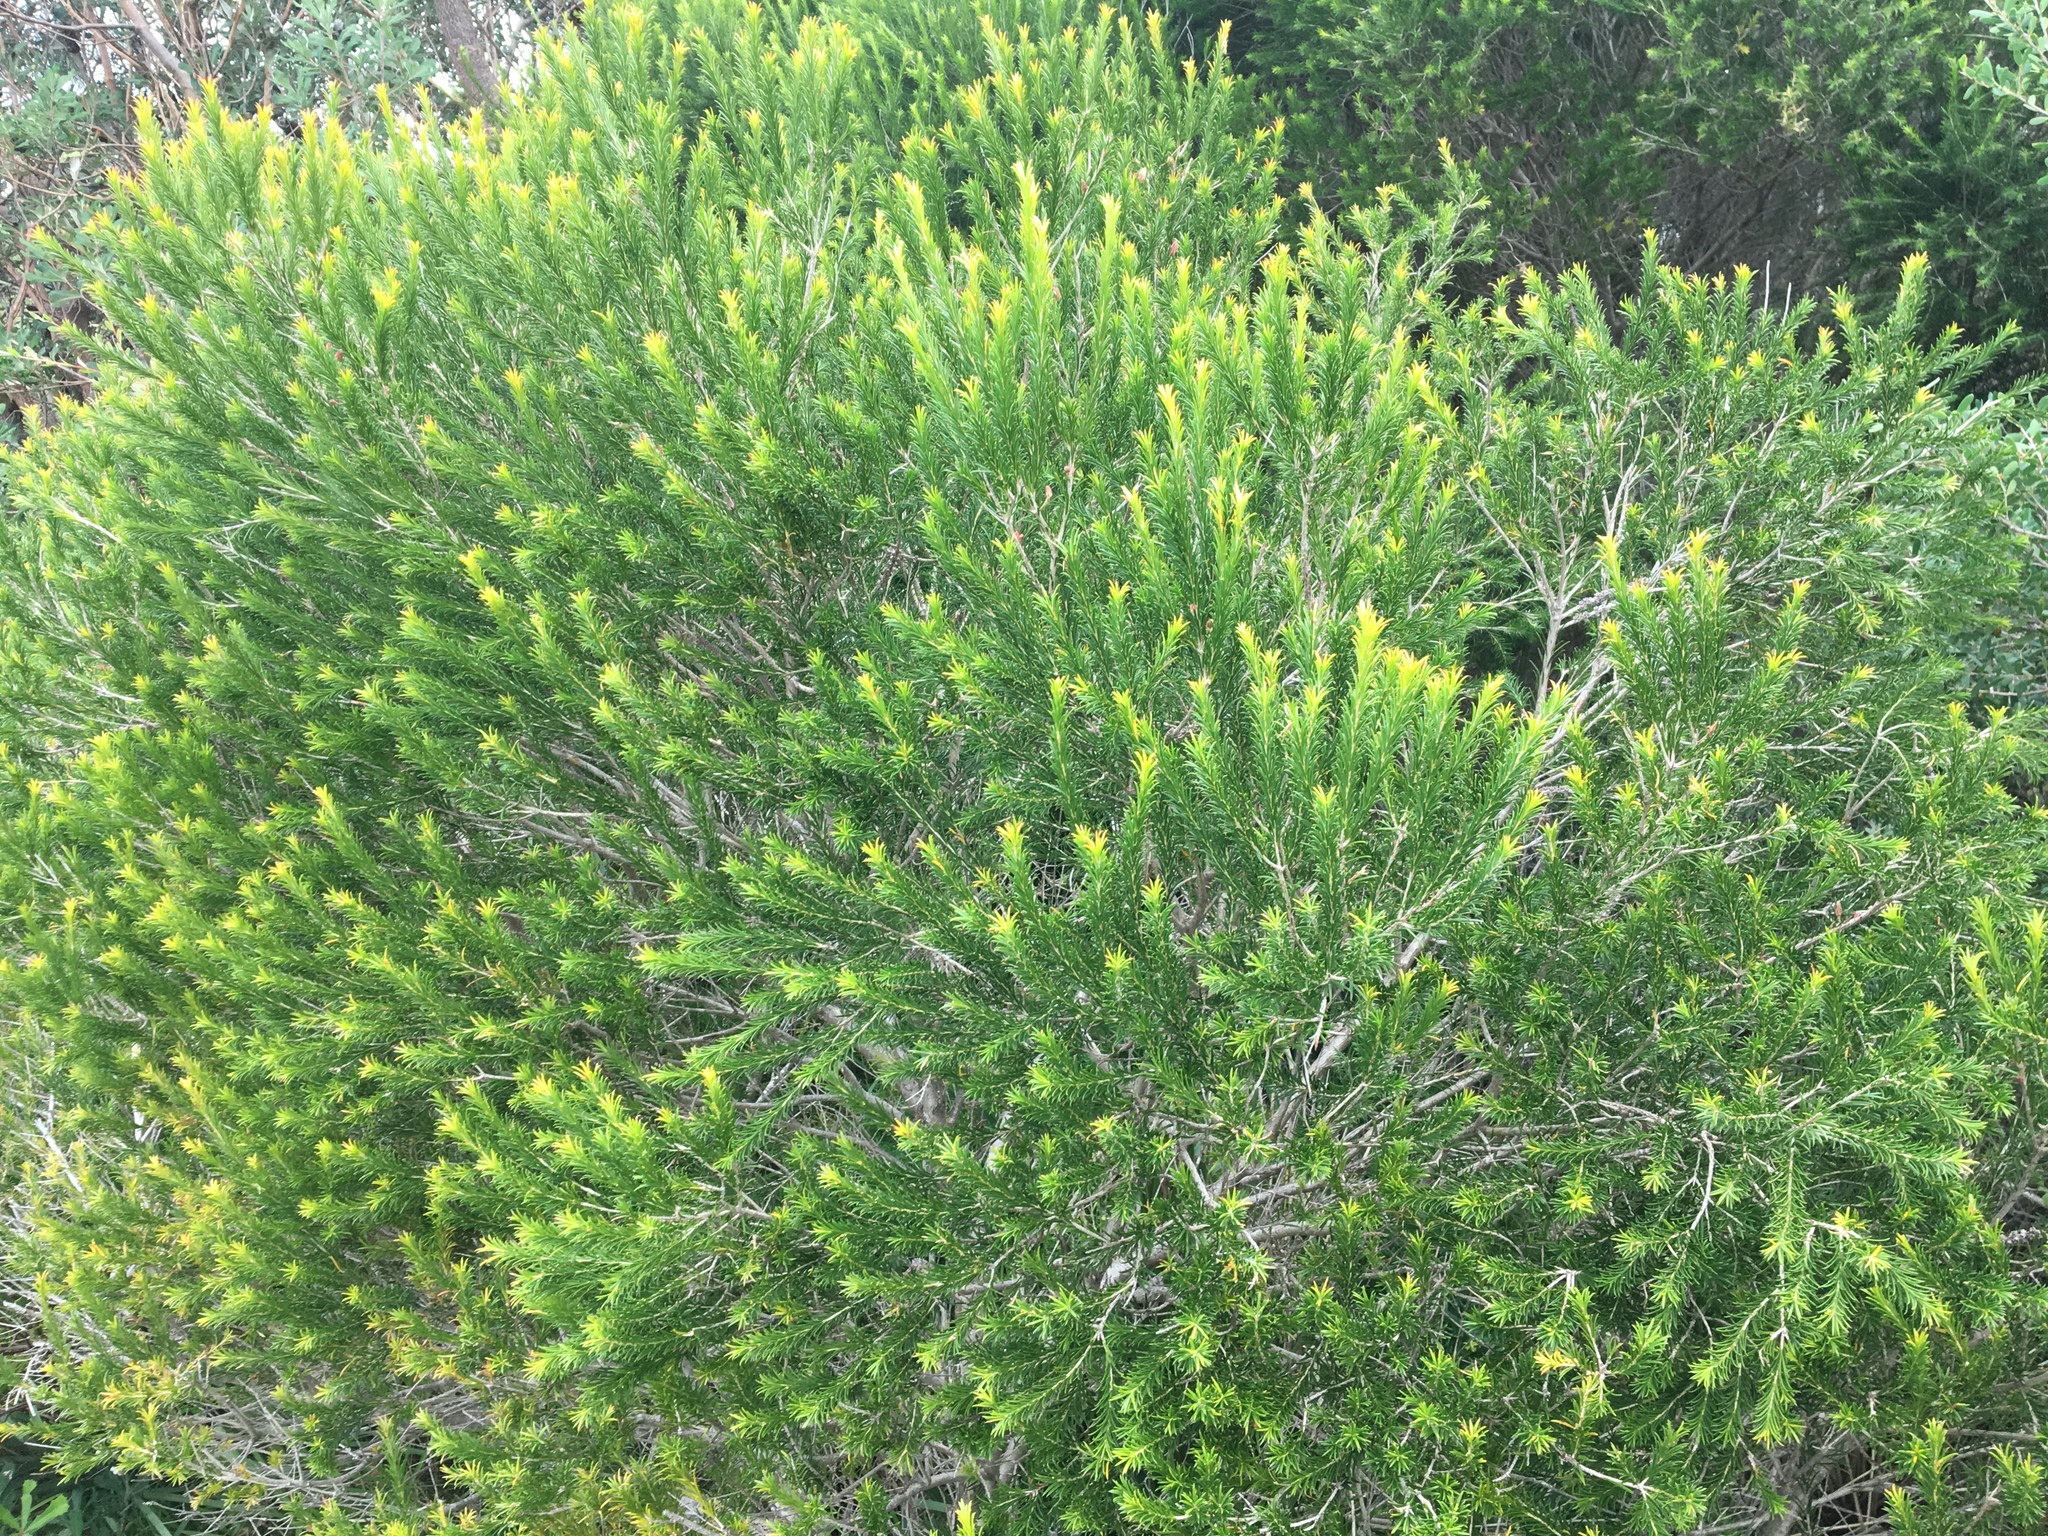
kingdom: Plantae
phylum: Tracheophyta
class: Magnoliopsida
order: Myrtales
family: Myrtaceae
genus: Melaleuca
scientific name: Melaleuca armillaris
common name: Bracelet honey myrtle
